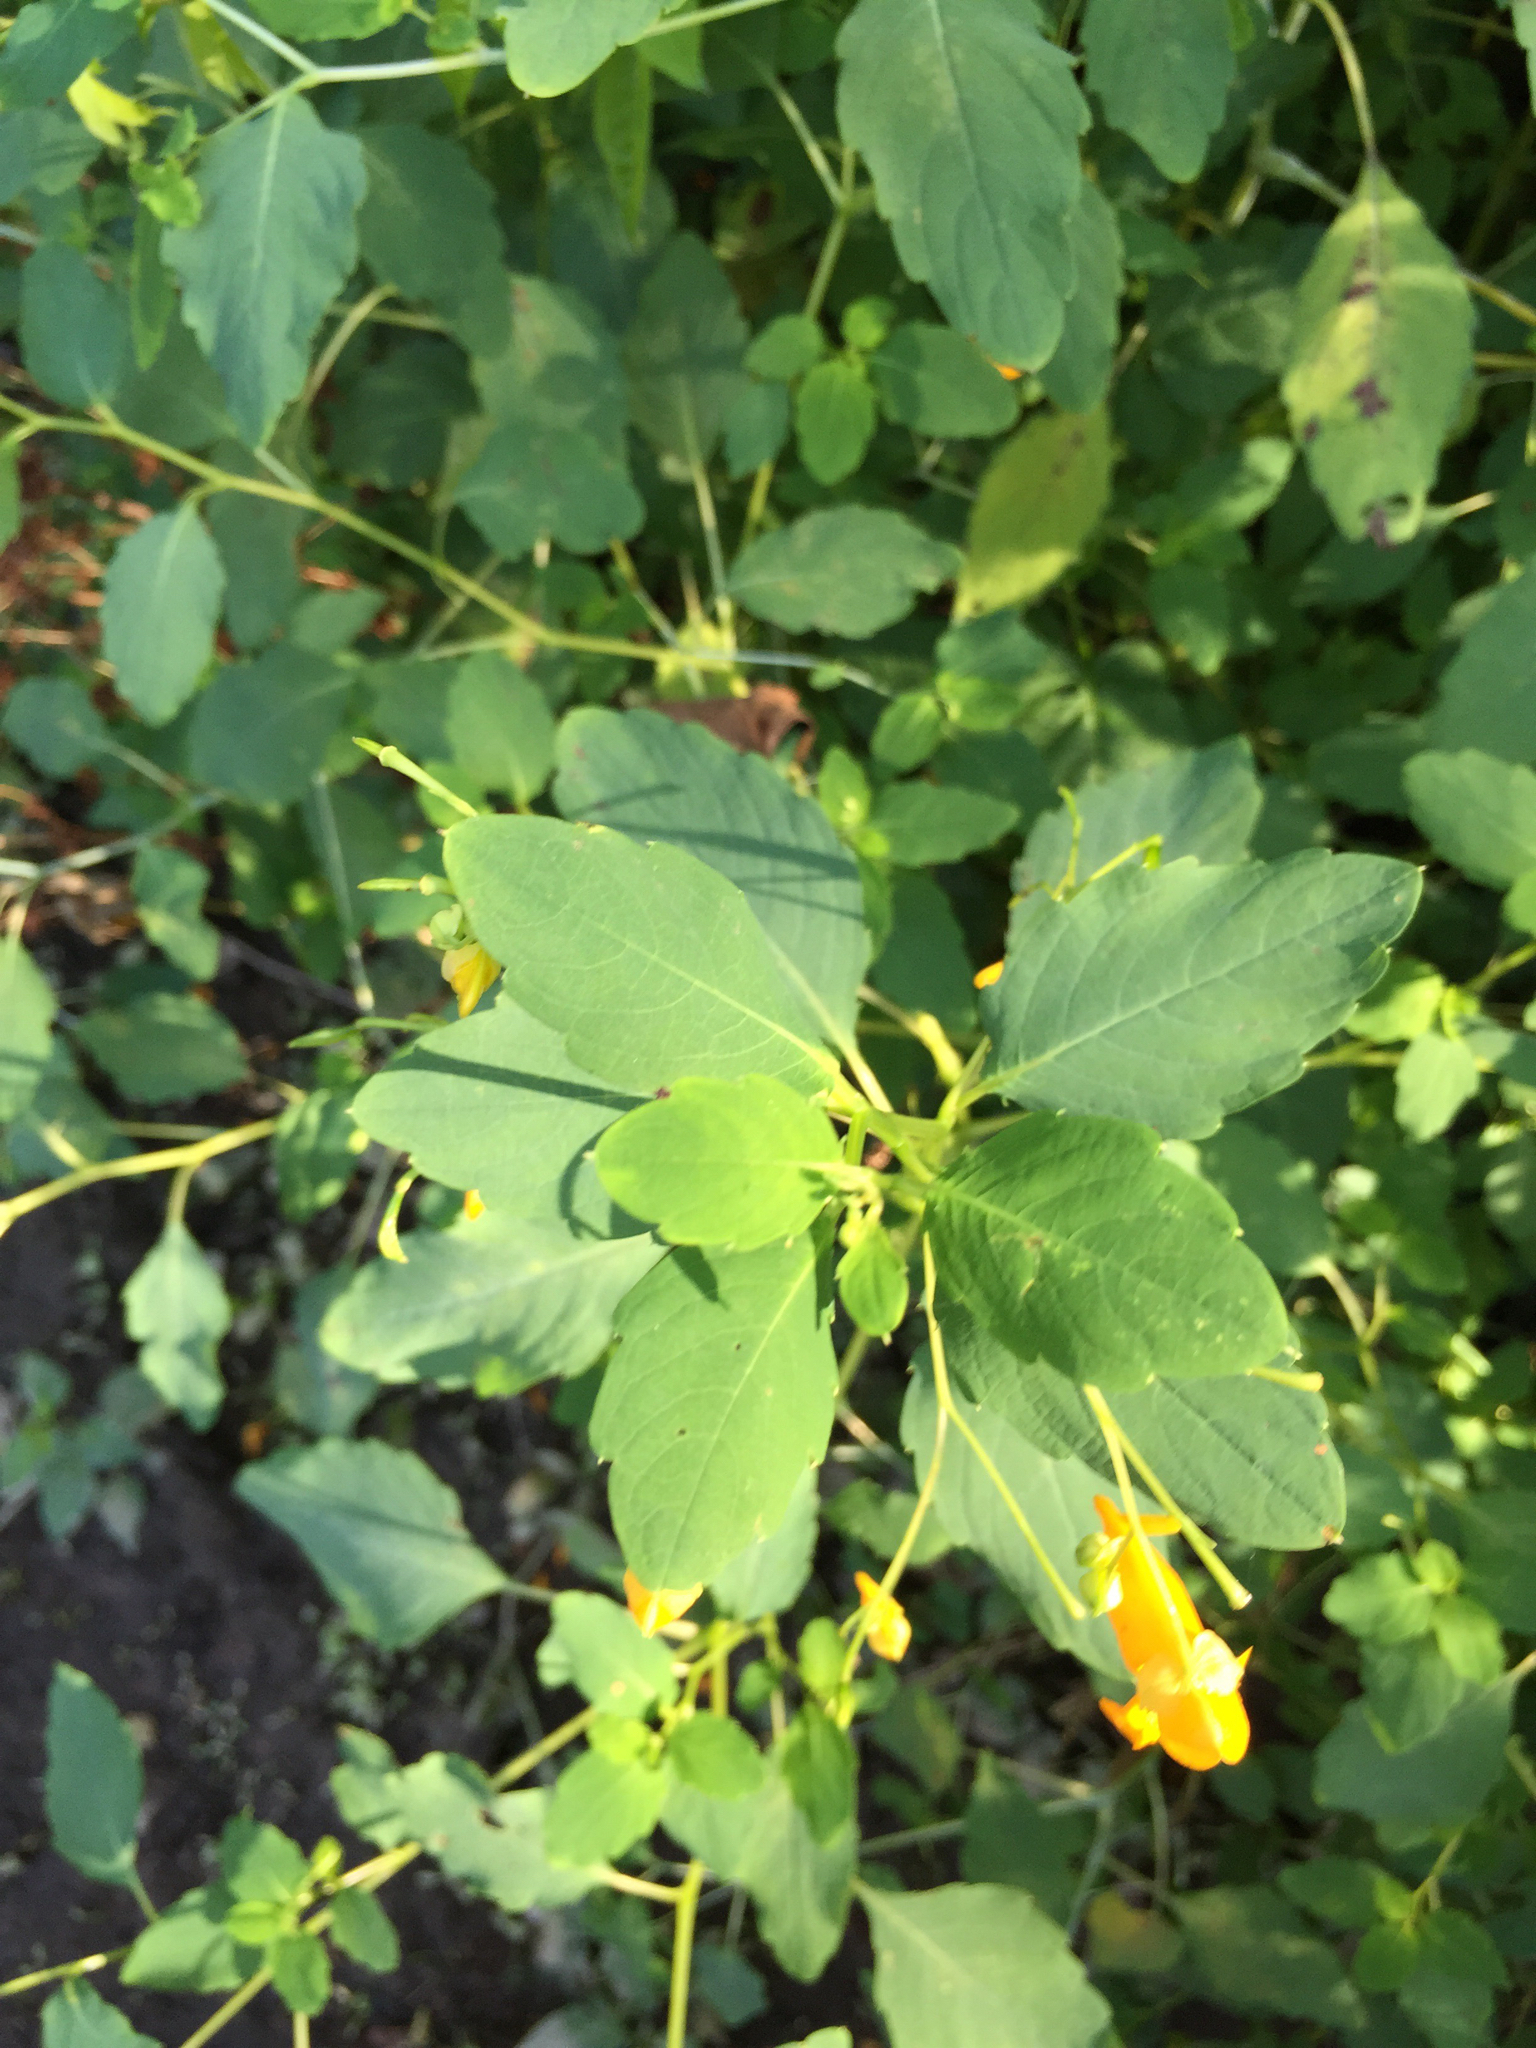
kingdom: Plantae
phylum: Tracheophyta
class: Magnoliopsida
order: Ericales
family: Balsaminaceae
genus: Impatiens
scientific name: Impatiens capensis
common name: Orange balsam
